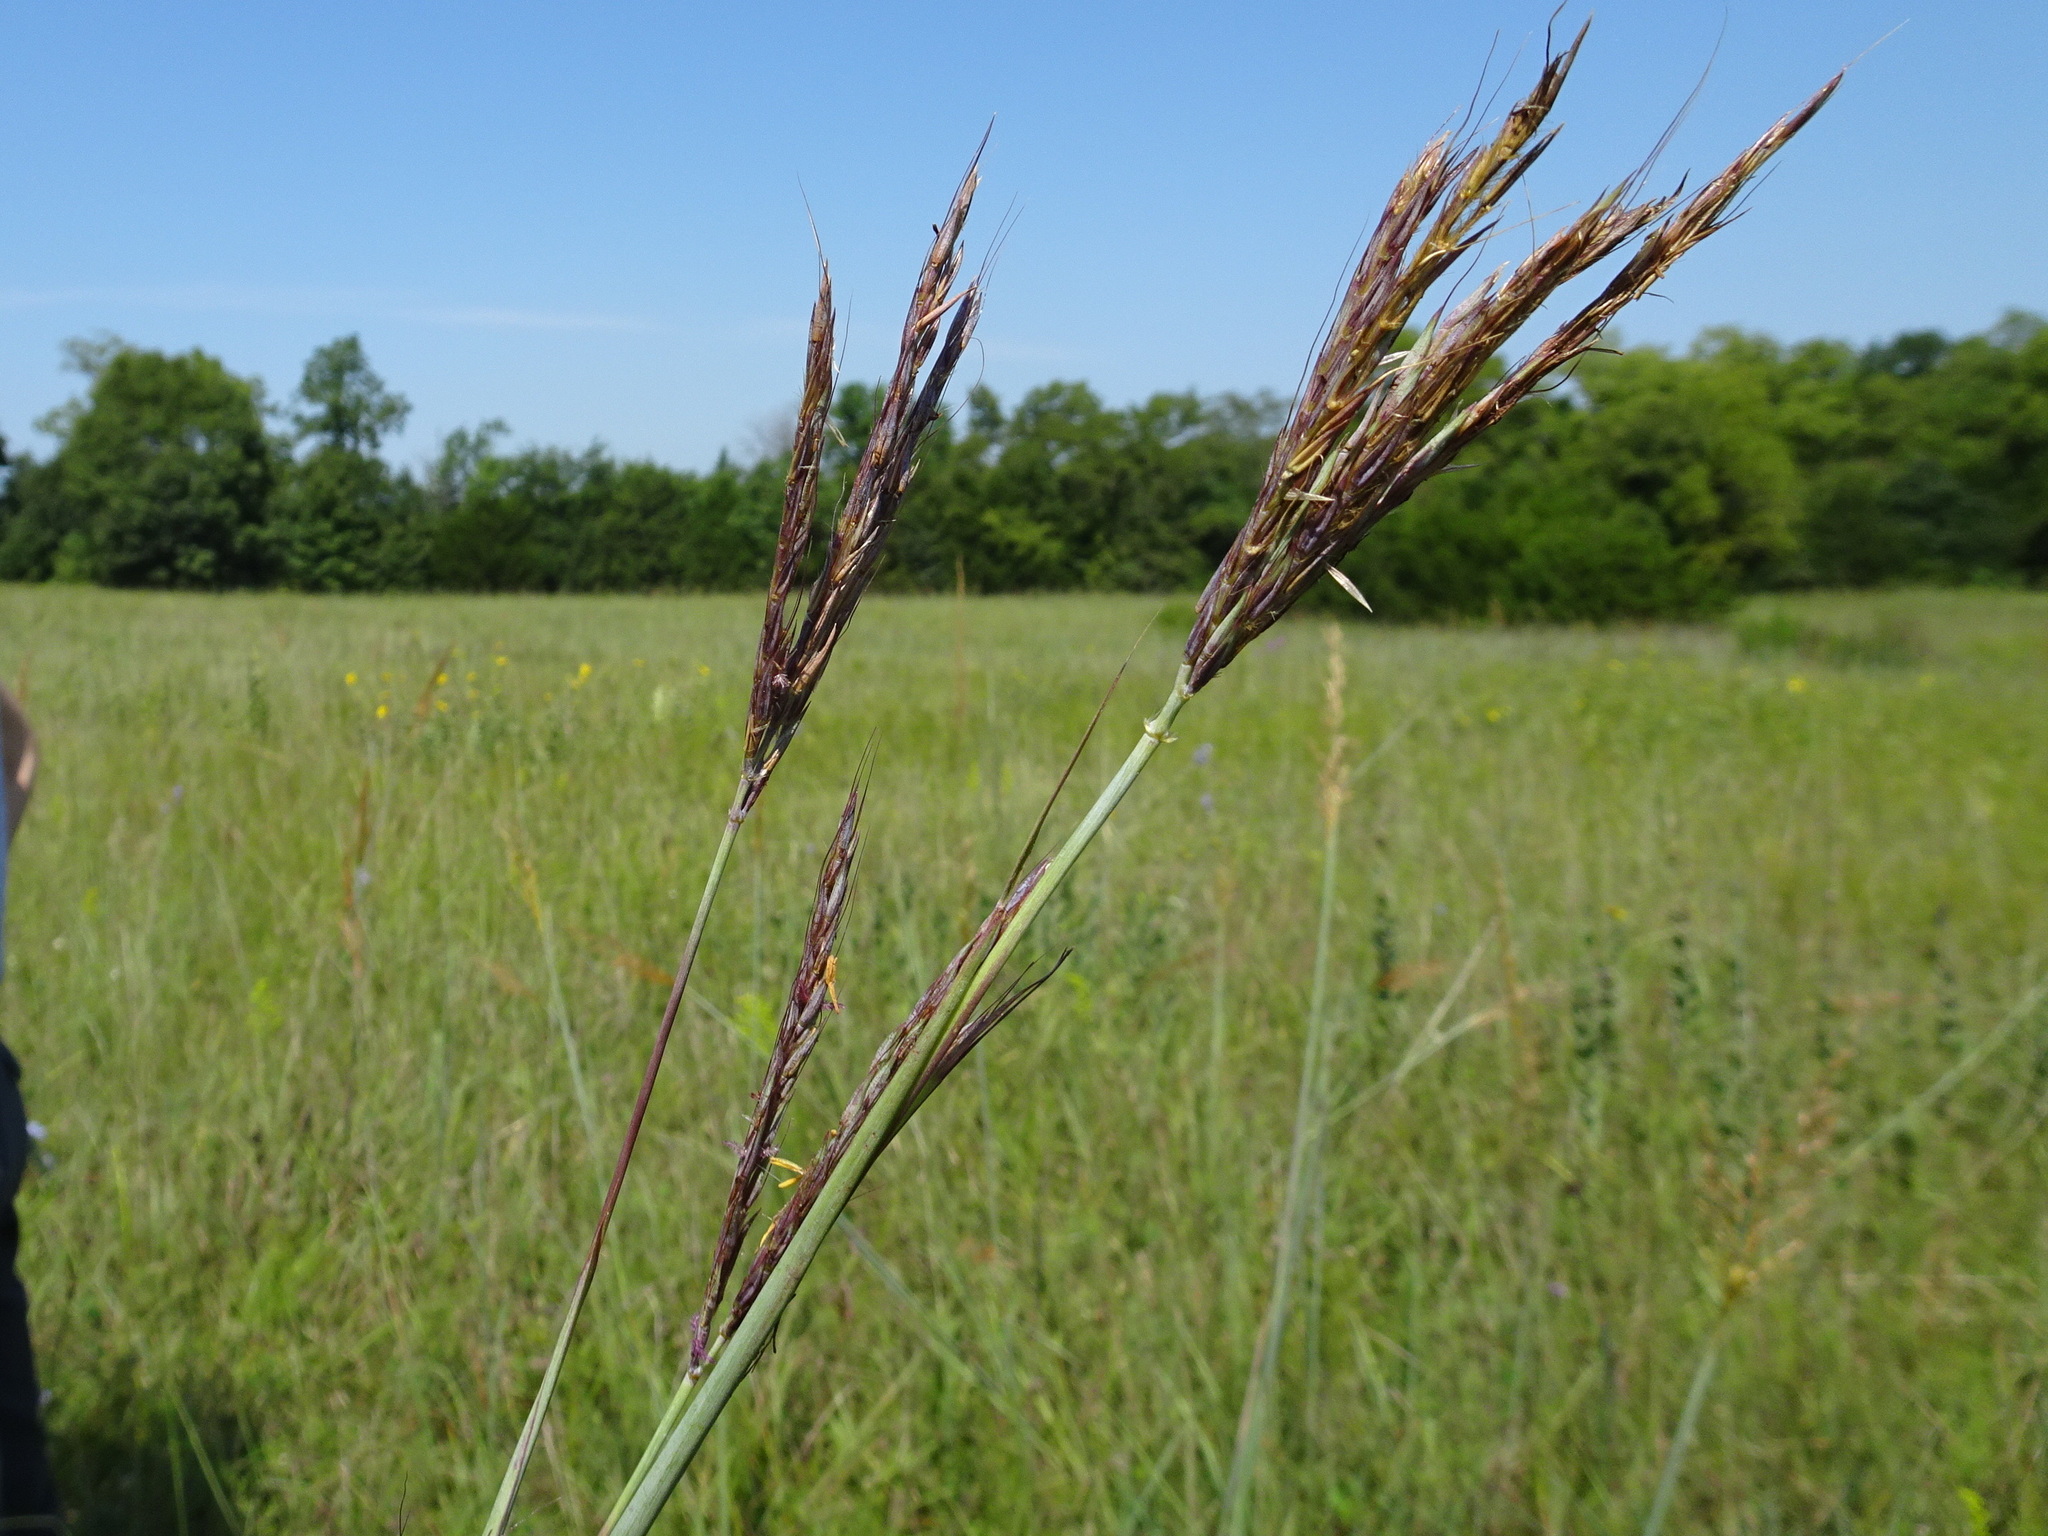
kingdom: Plantae
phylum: Tracheophyta
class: Liliopsida
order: Poales
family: Poaceae
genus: Andropogon
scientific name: Andropogon gerardi
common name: Big bluestem
